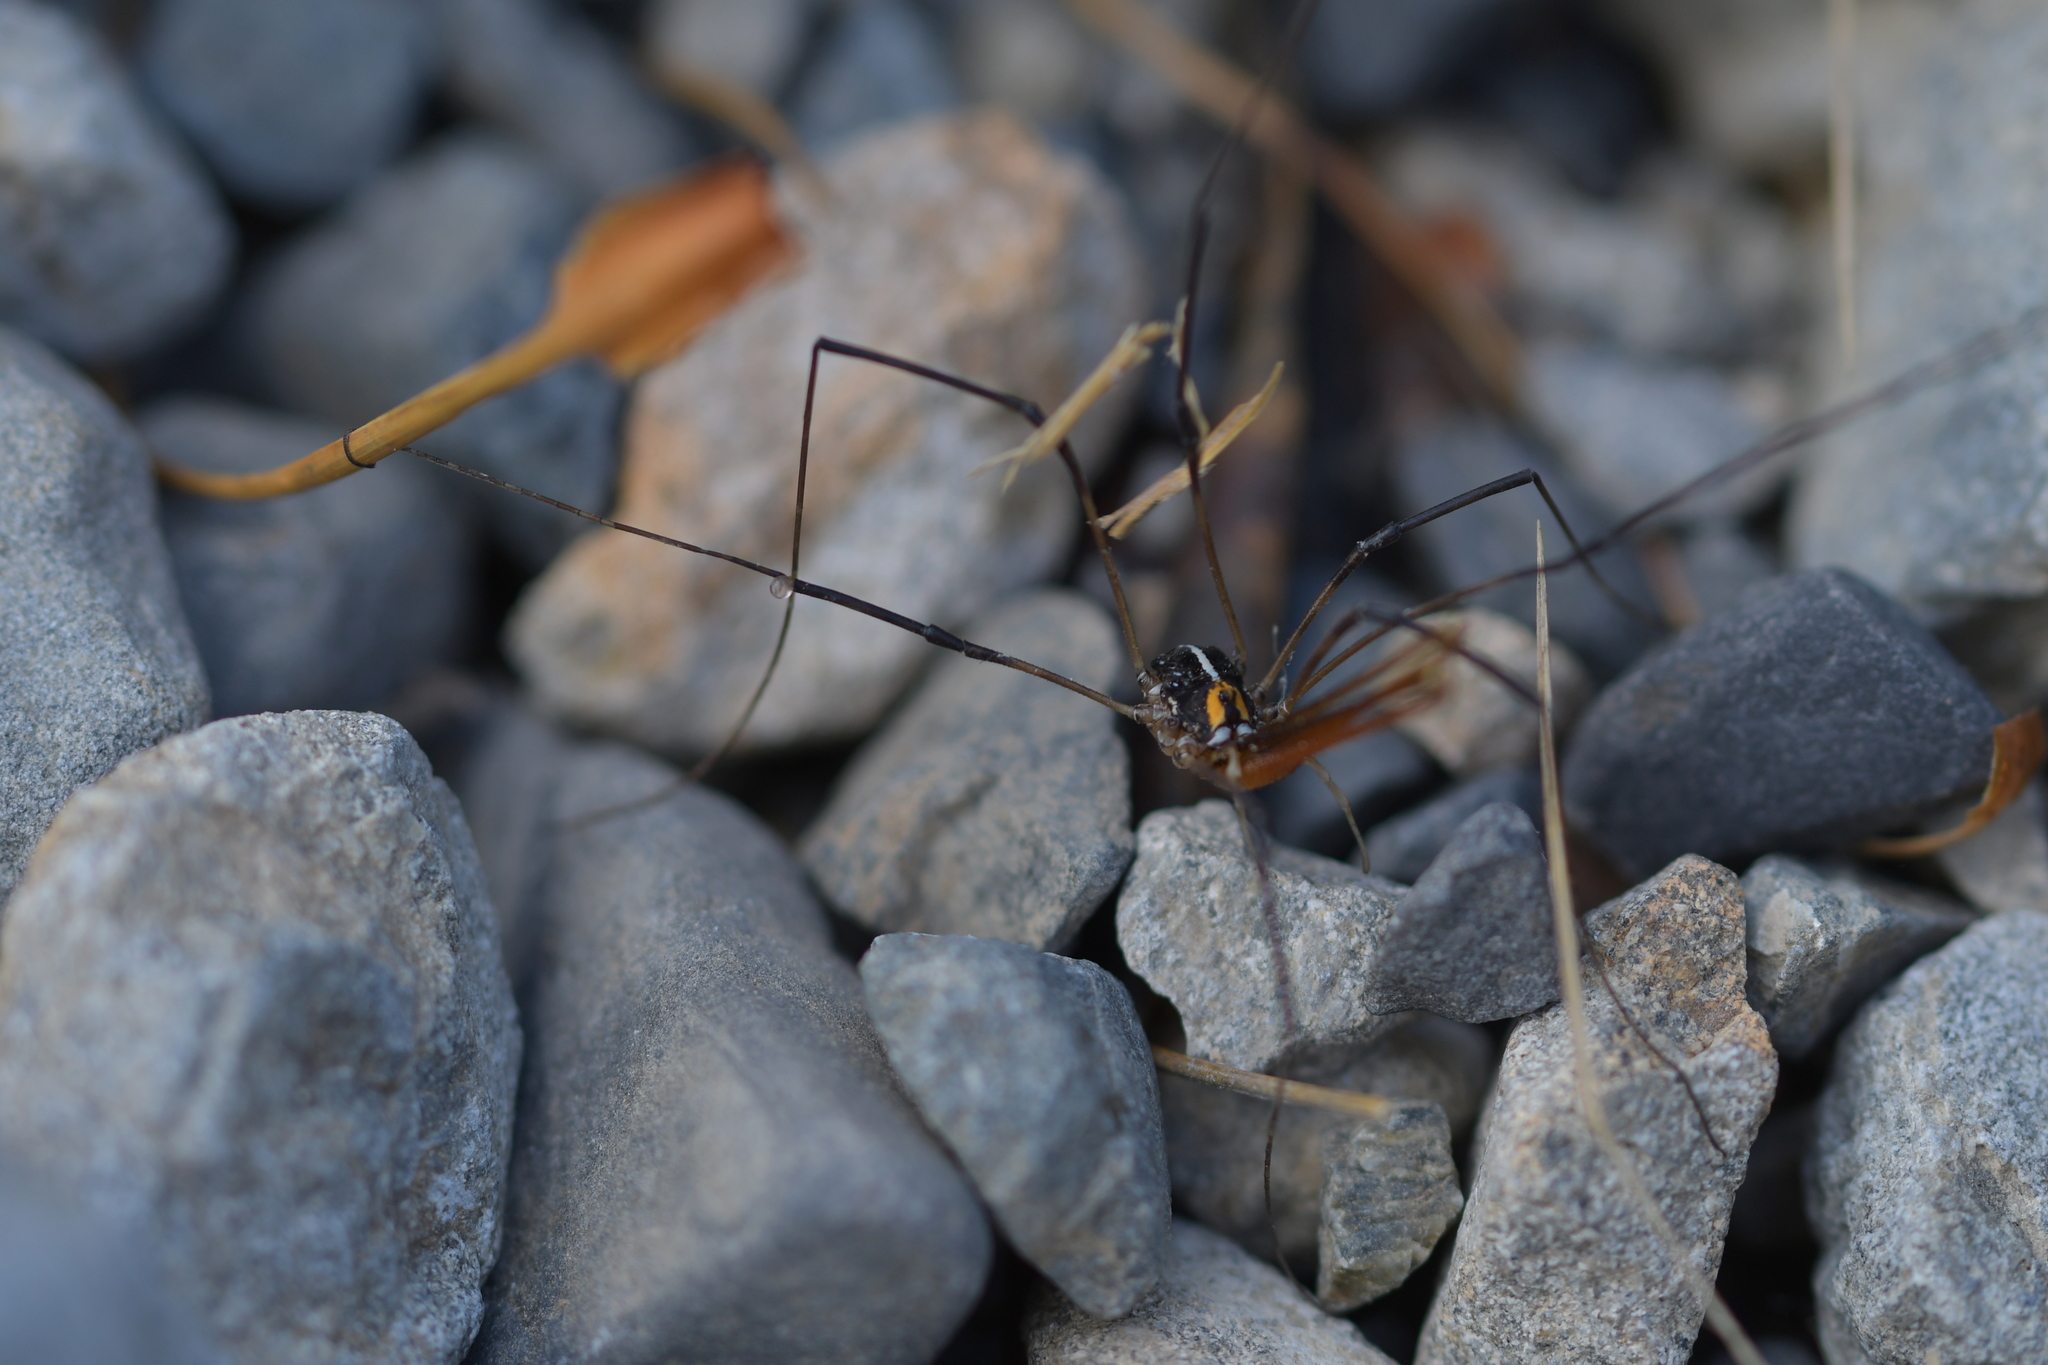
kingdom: Animalia
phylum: Arthropoda
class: Arachnida
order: Opiliones
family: Neopilionidae
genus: Forsteropsalis
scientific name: Forsteropsalis inconstans
